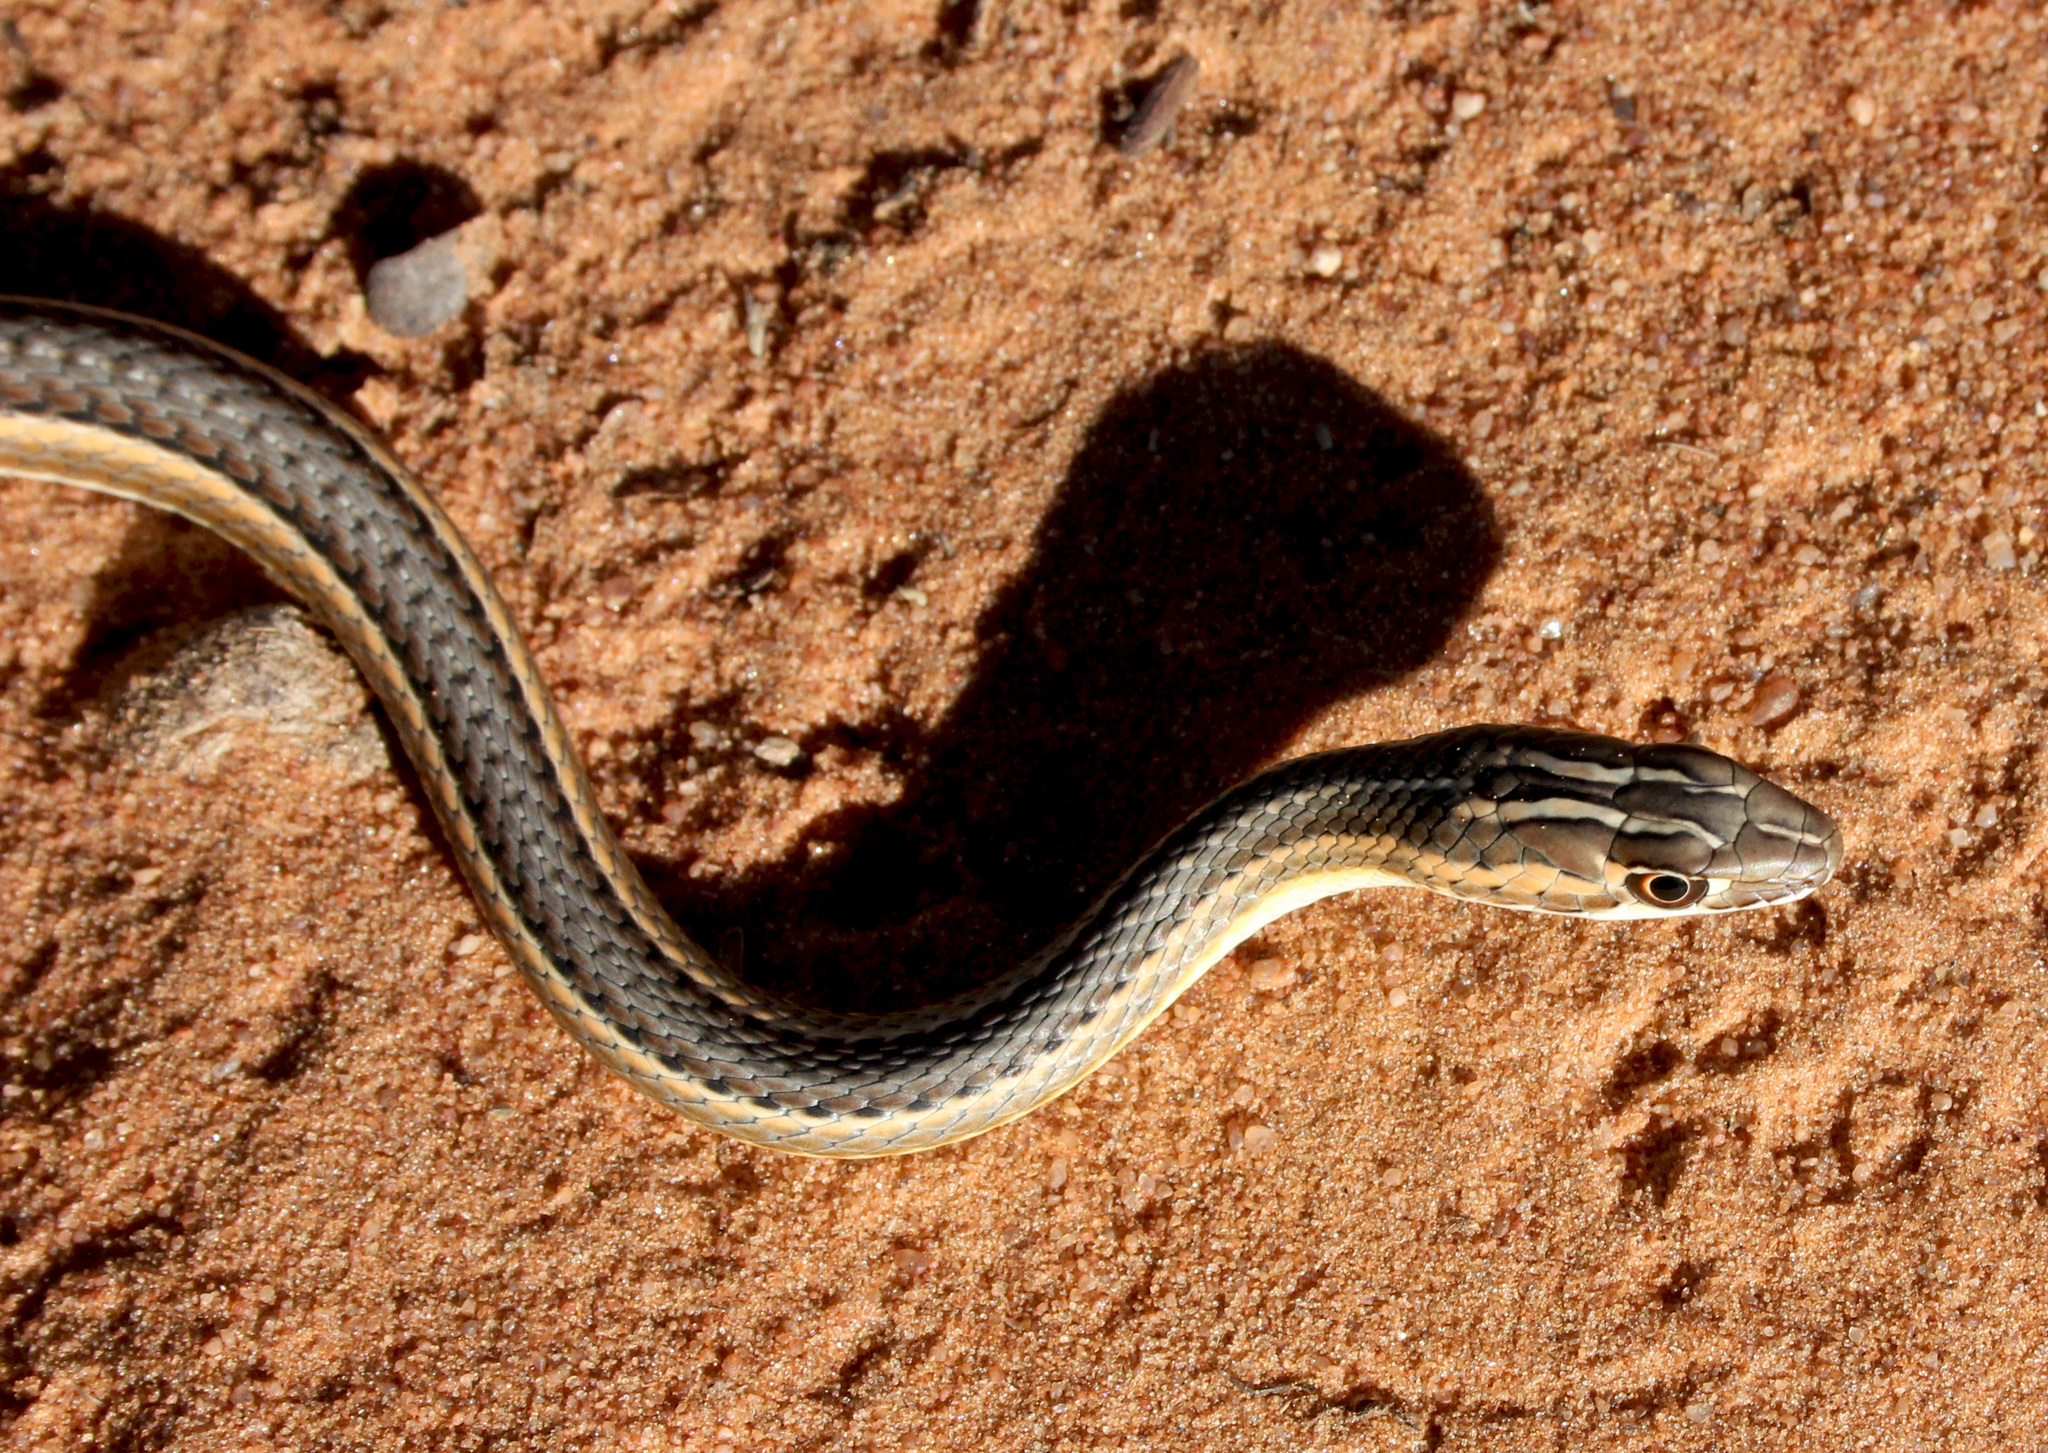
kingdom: Animalia
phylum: Chordata
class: Squamata
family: Psammophiidae
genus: Psammophis
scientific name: Psammophis leightoni
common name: Cape sand snake
